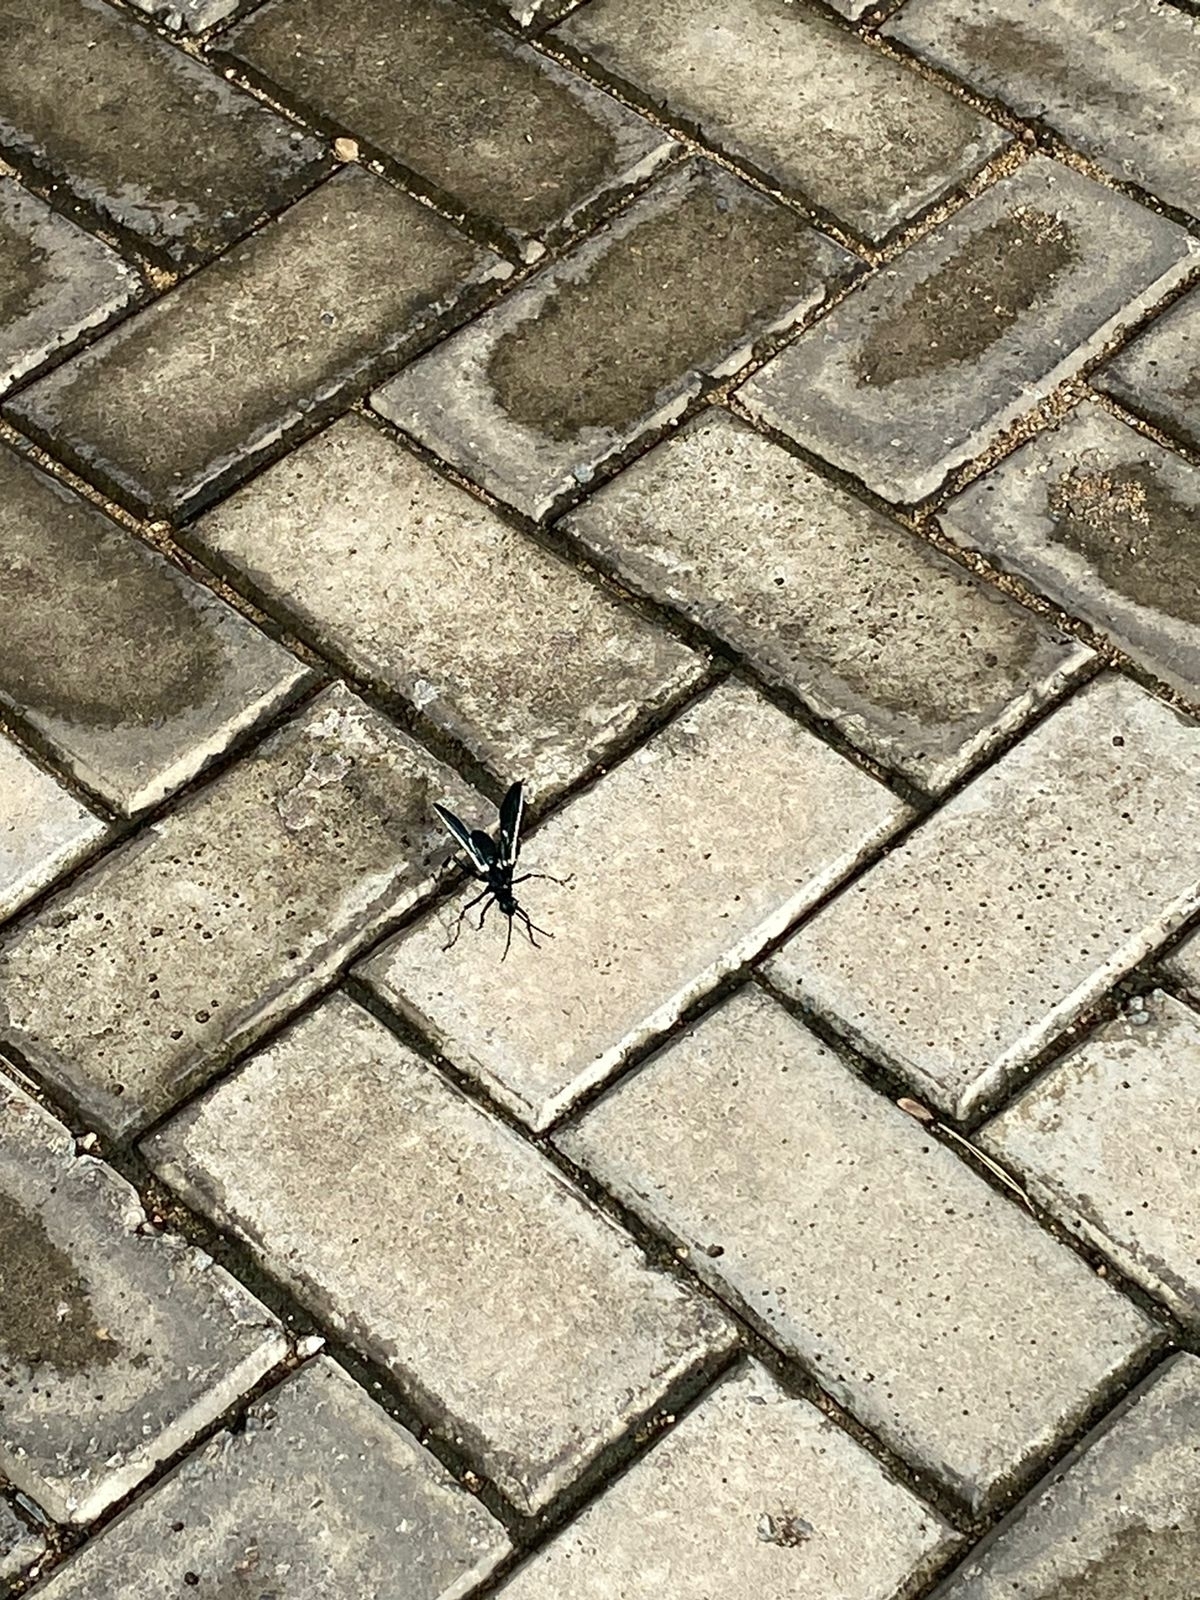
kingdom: Animalia
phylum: Arthropoda
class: Insecta
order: Hymenoptera
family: Pompilidae
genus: Pepsis
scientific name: Pepsis decorata
